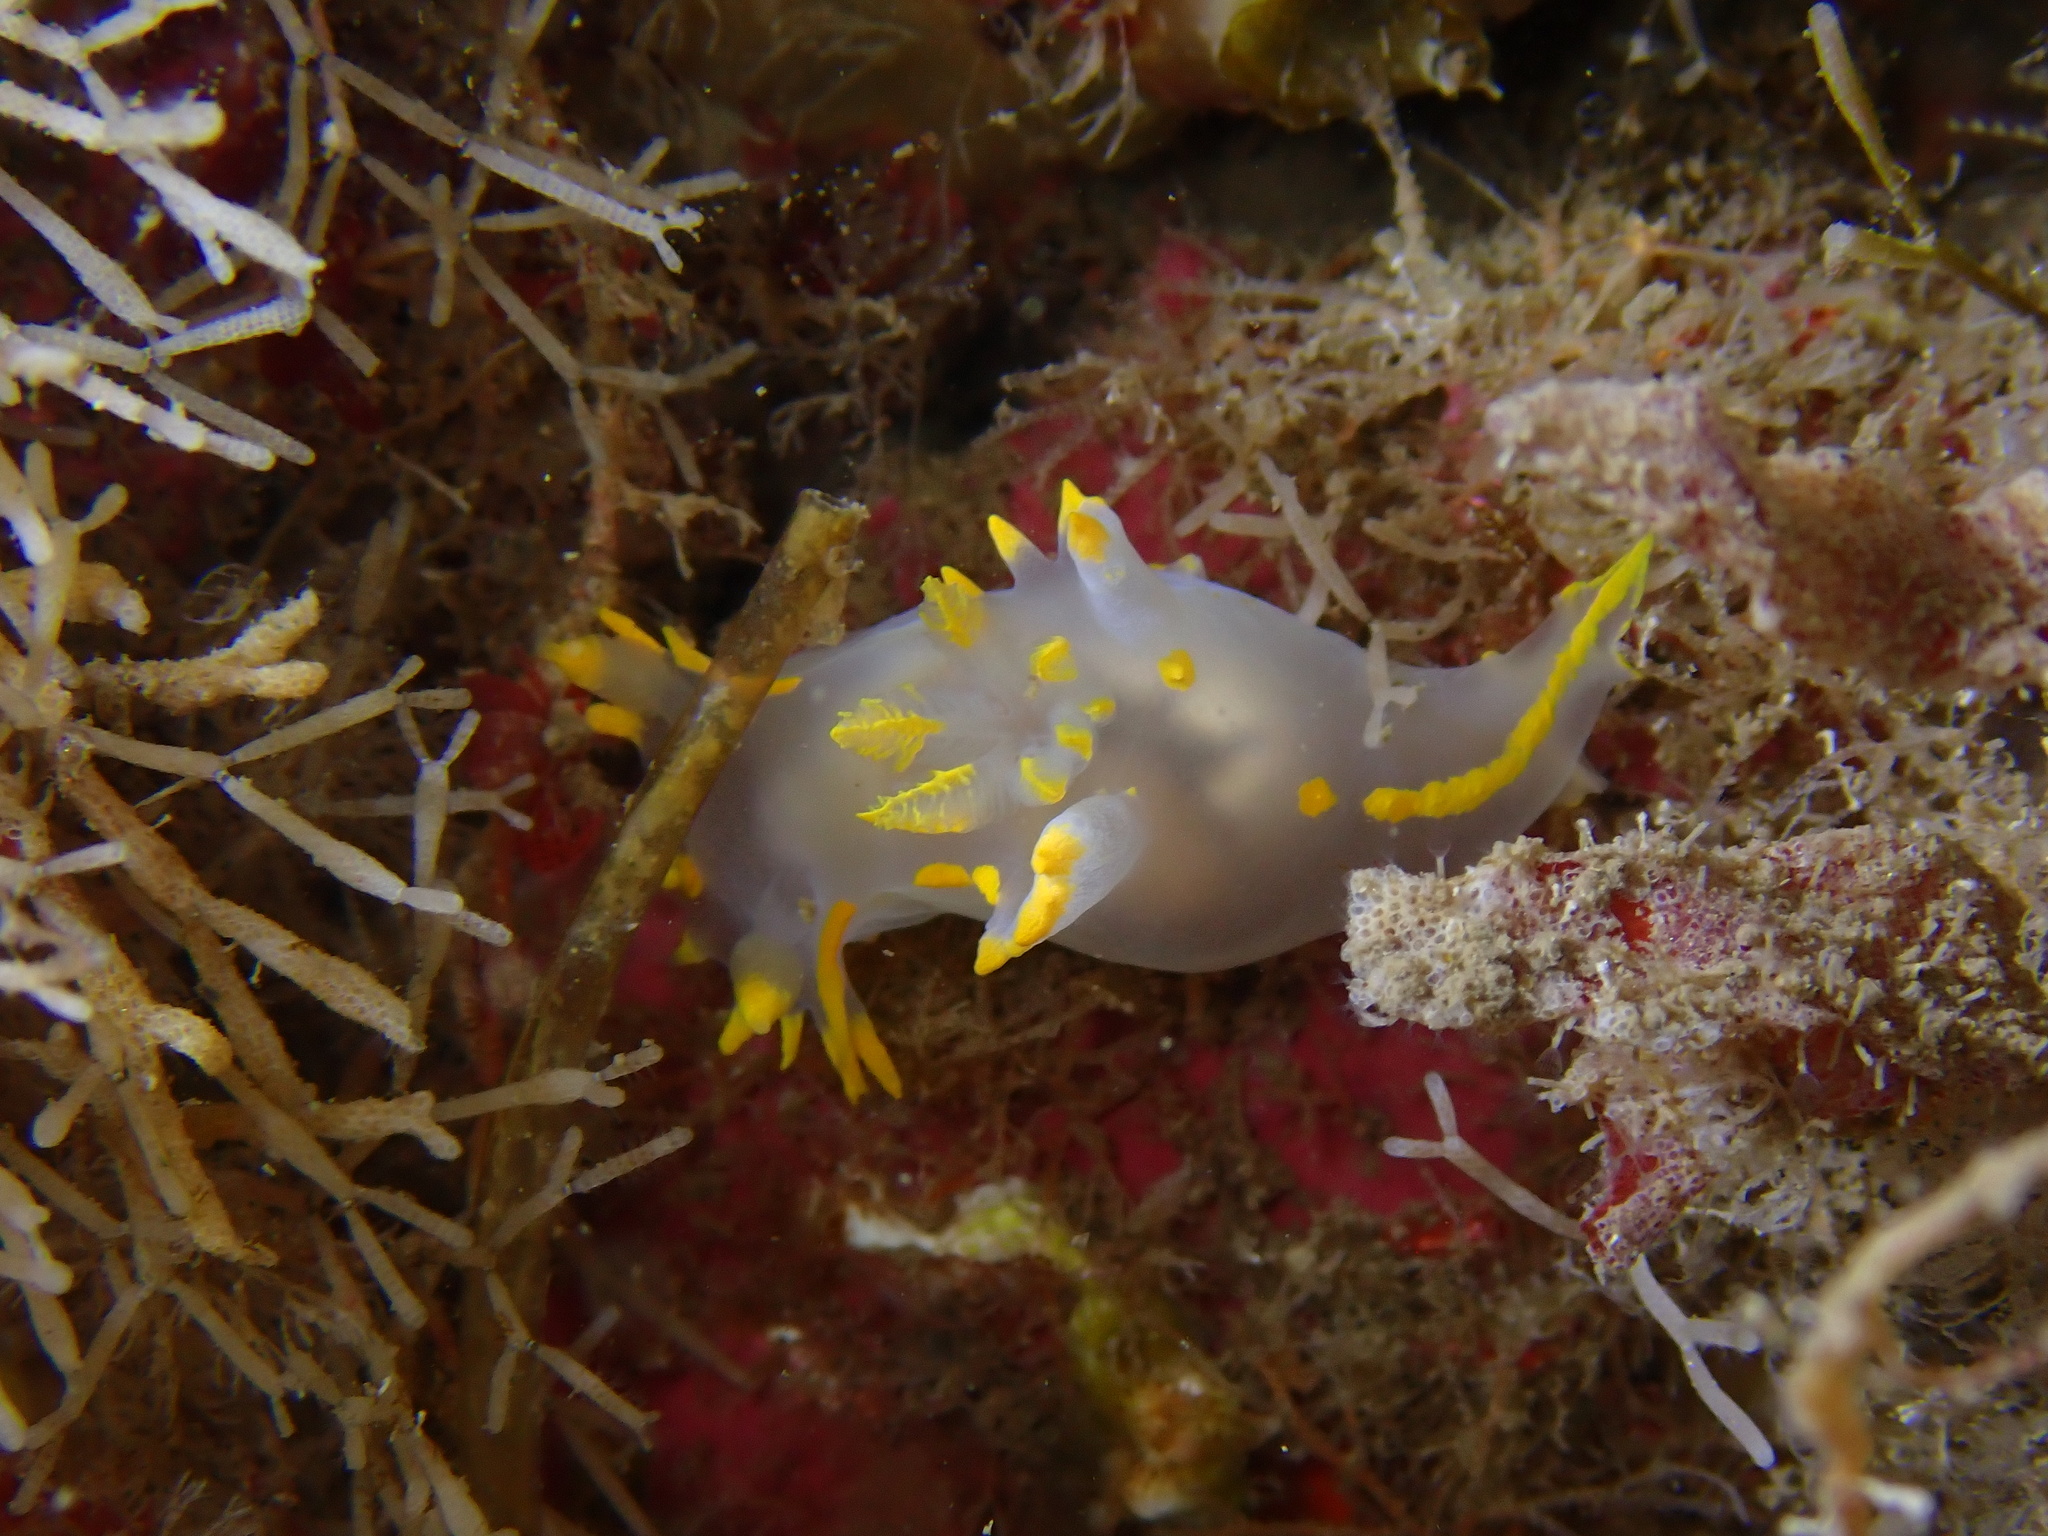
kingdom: Animalia
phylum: Mollusca
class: Gastropoda
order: Nudibranchia
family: Polyceridae
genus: Polycera
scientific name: Polycera faeroensis
